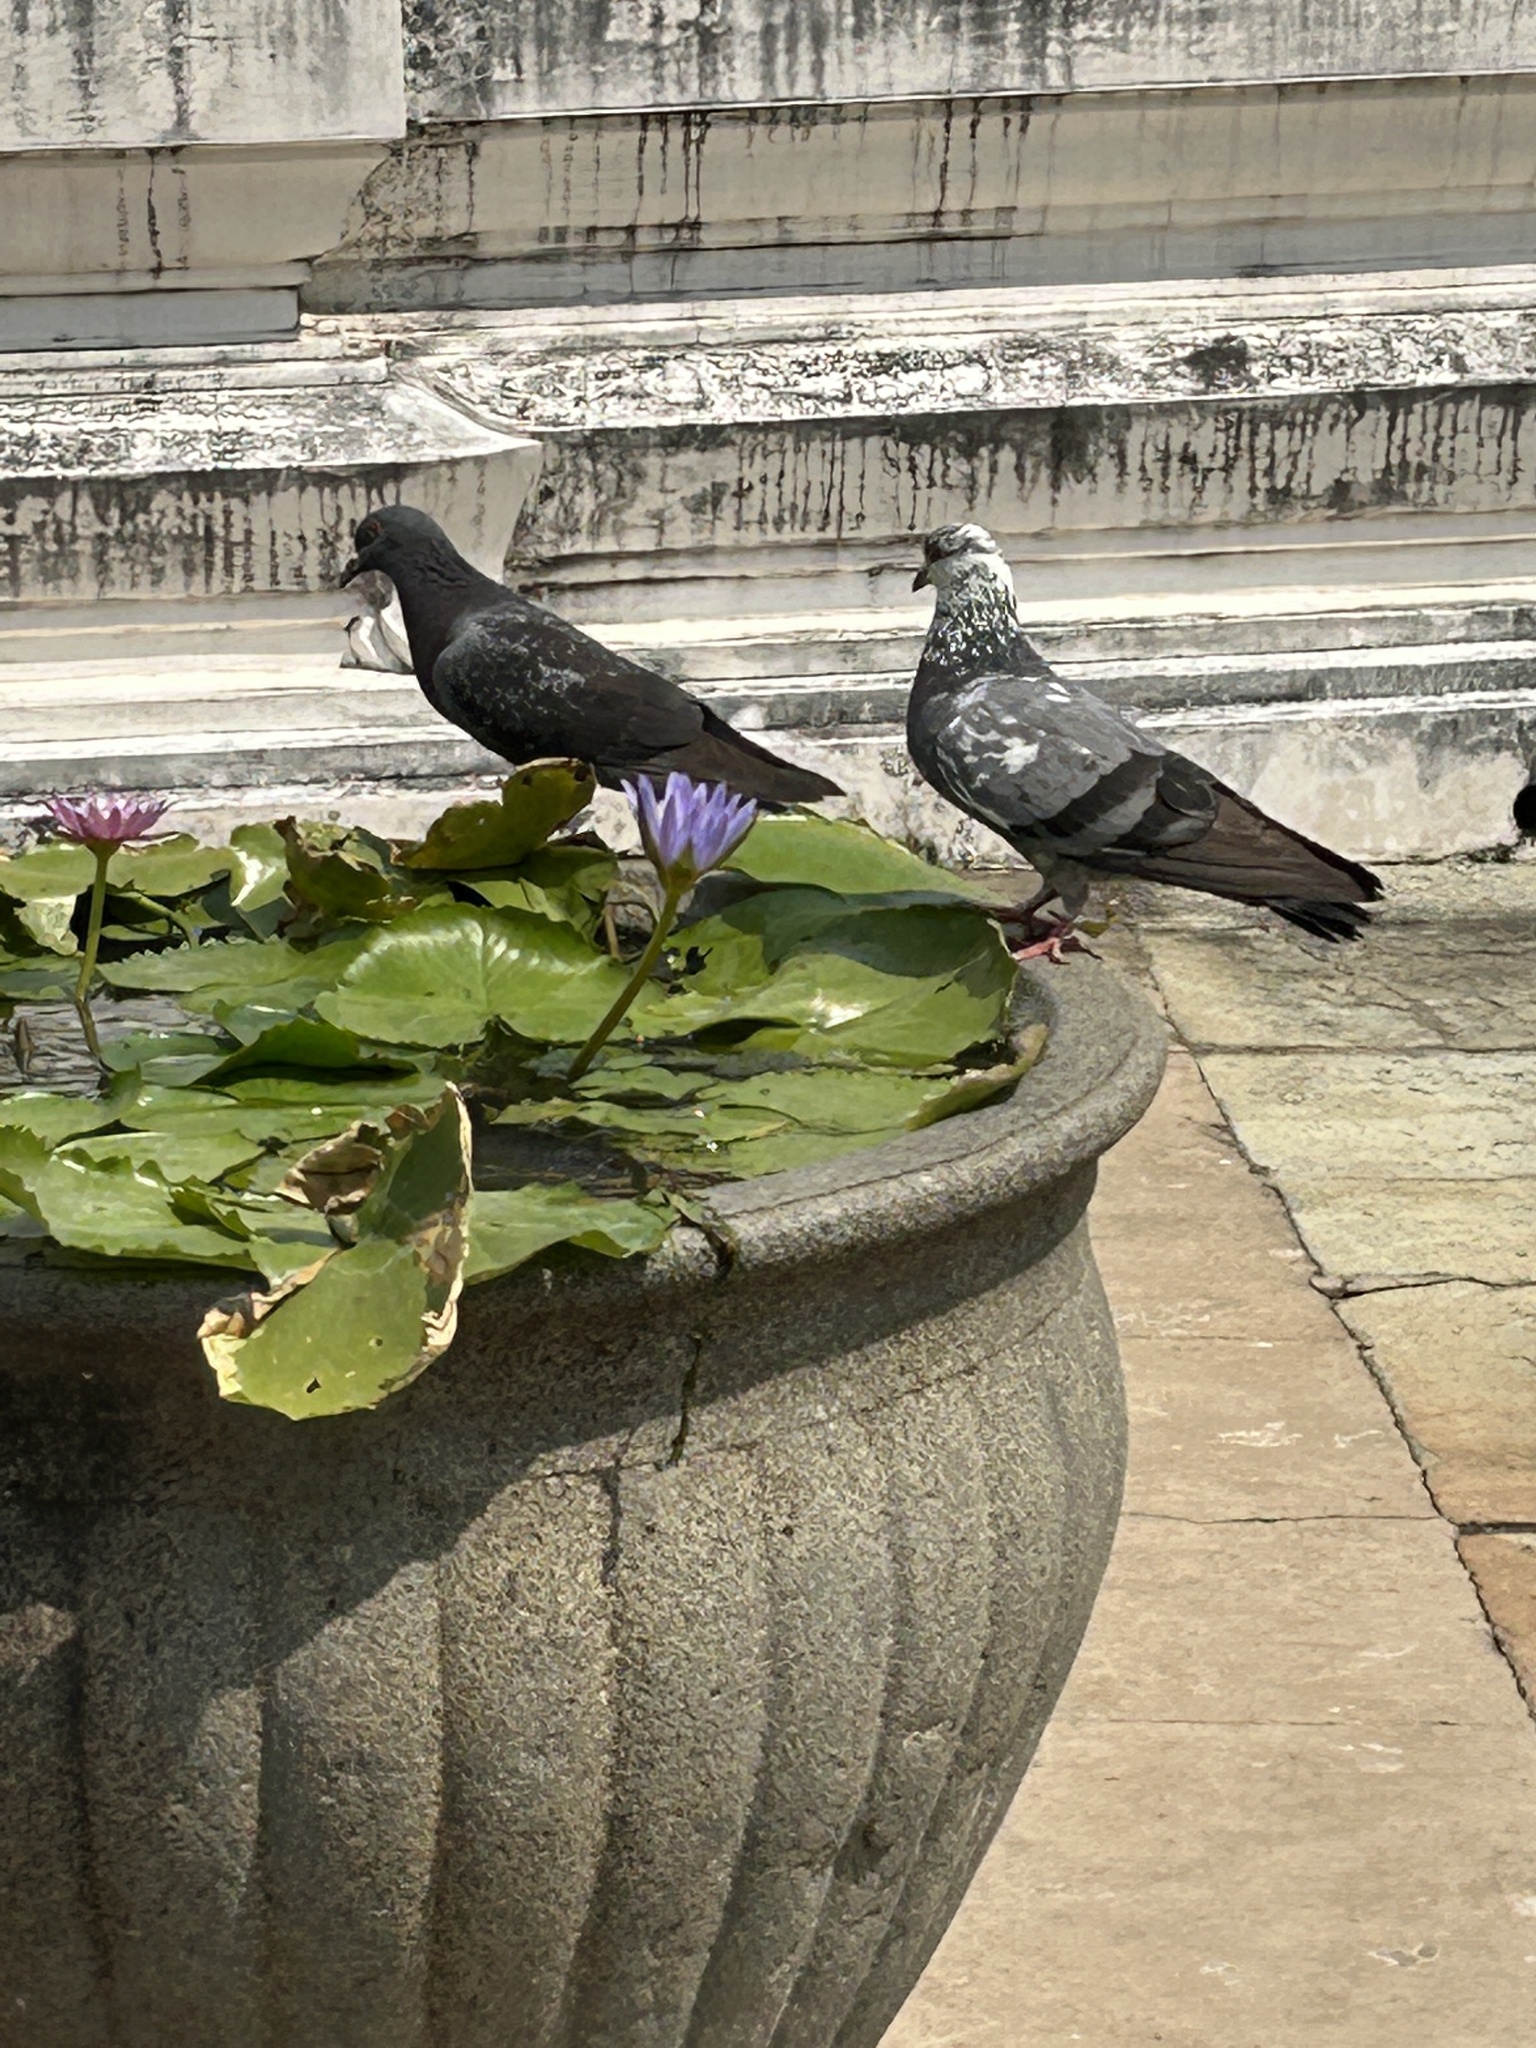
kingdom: Animalia
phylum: Chordata
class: Aves
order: Columbiformes
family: Columbidae
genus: Columba
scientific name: Columba livia
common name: Rock pigeon
